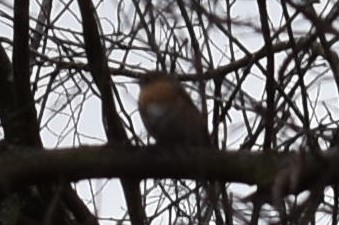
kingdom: Animalia
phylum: Chordata
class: Aves
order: Passeriformes
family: Turdidae
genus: Sialia
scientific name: Sialia sialis
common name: Eastern bluebird
